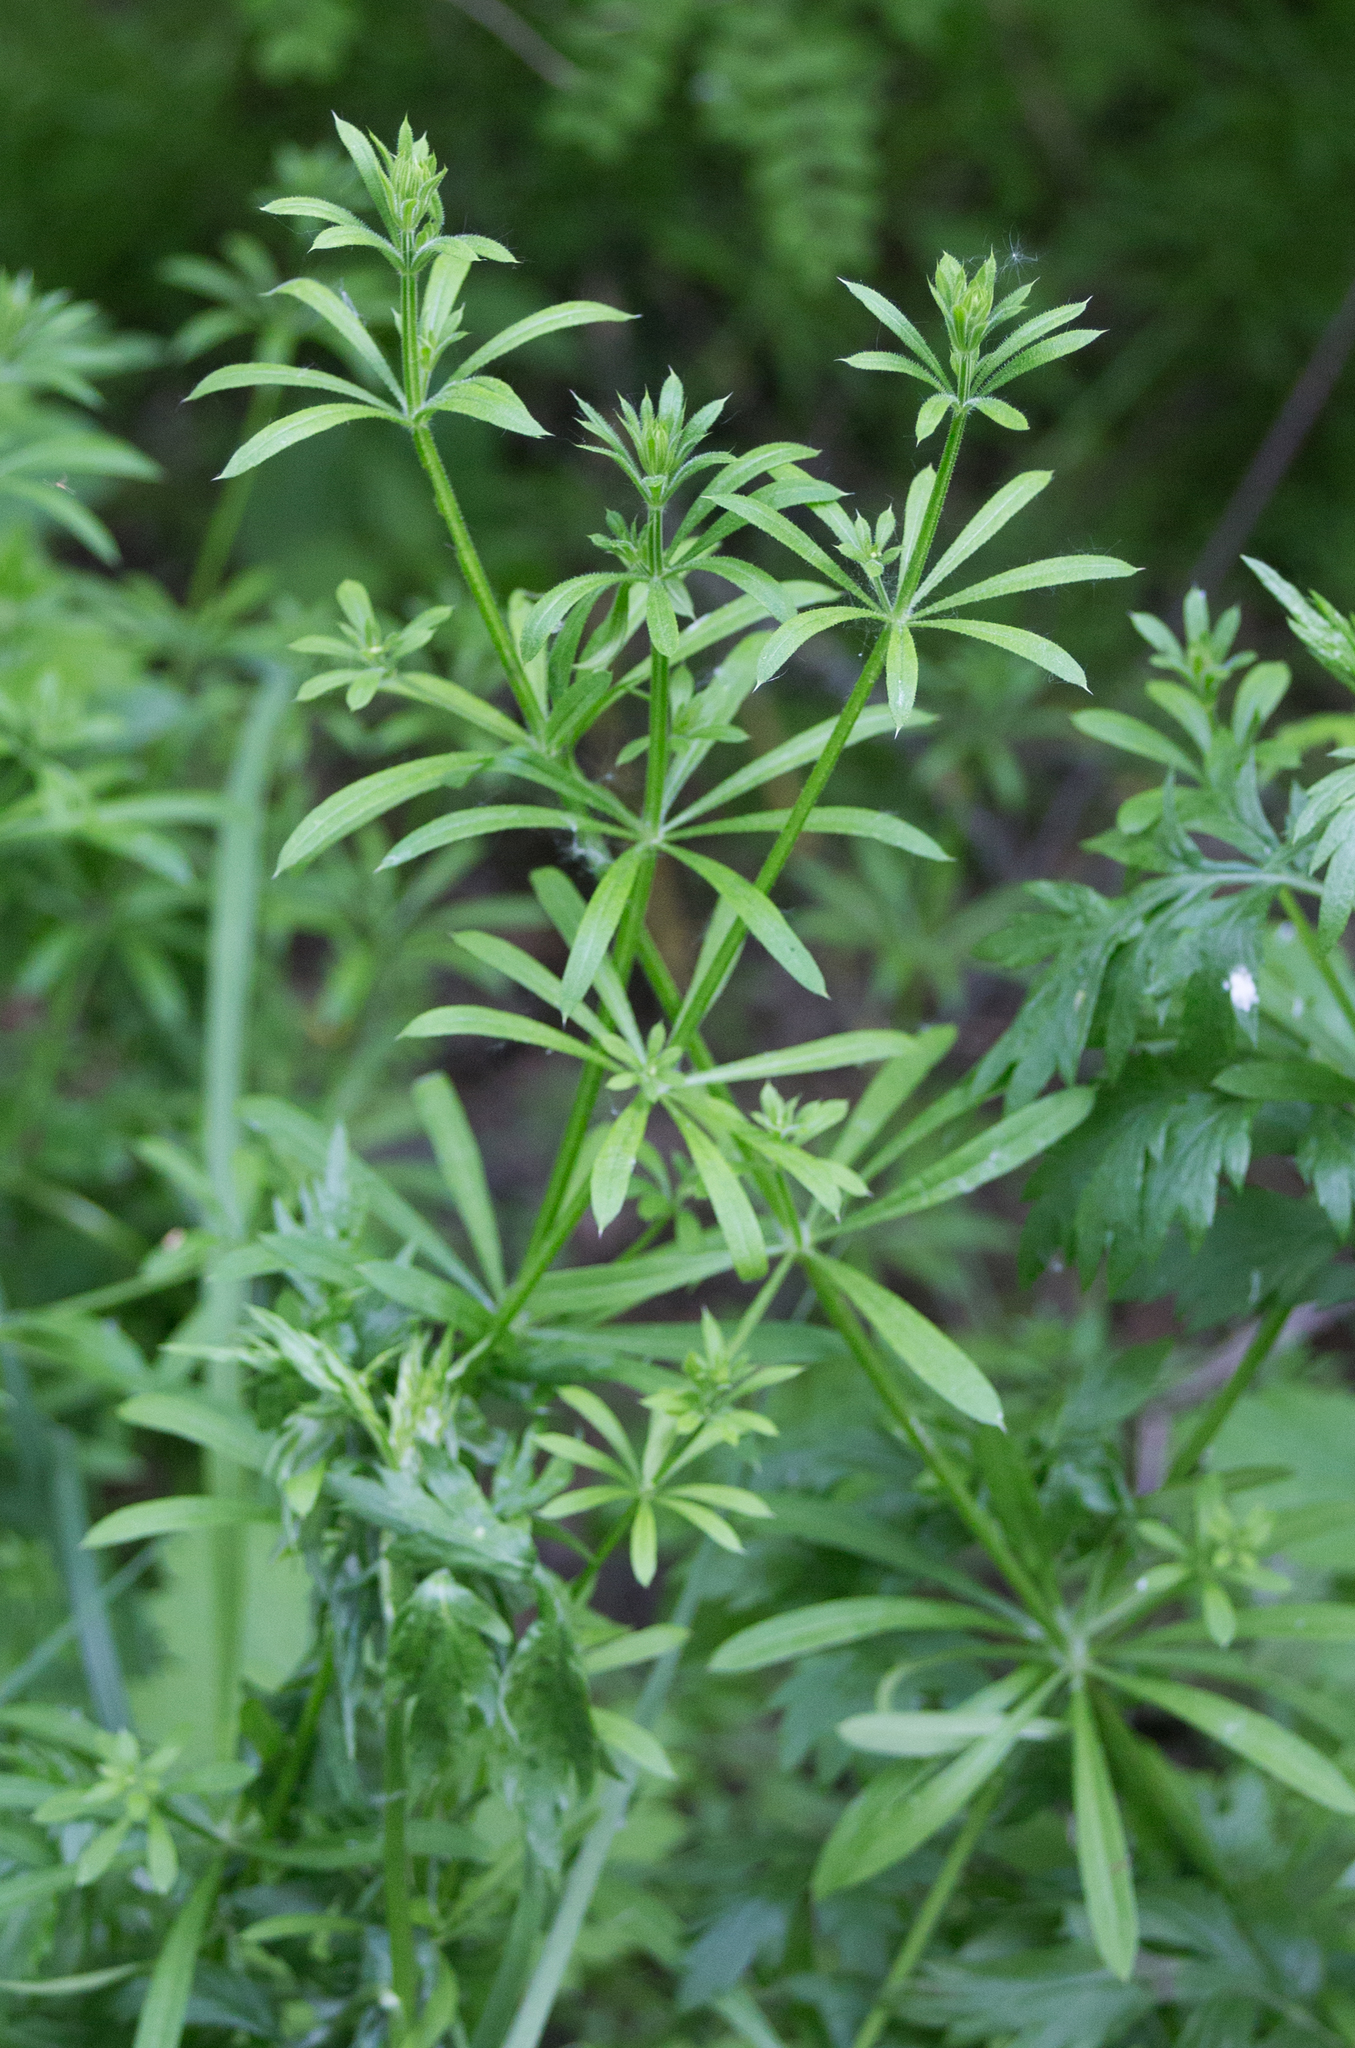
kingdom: Plantae
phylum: Tracheophyta
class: Magnoliopsida
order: Gentianales
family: Rubiaceae
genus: Galium
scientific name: Galium aparine
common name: Cleavers
